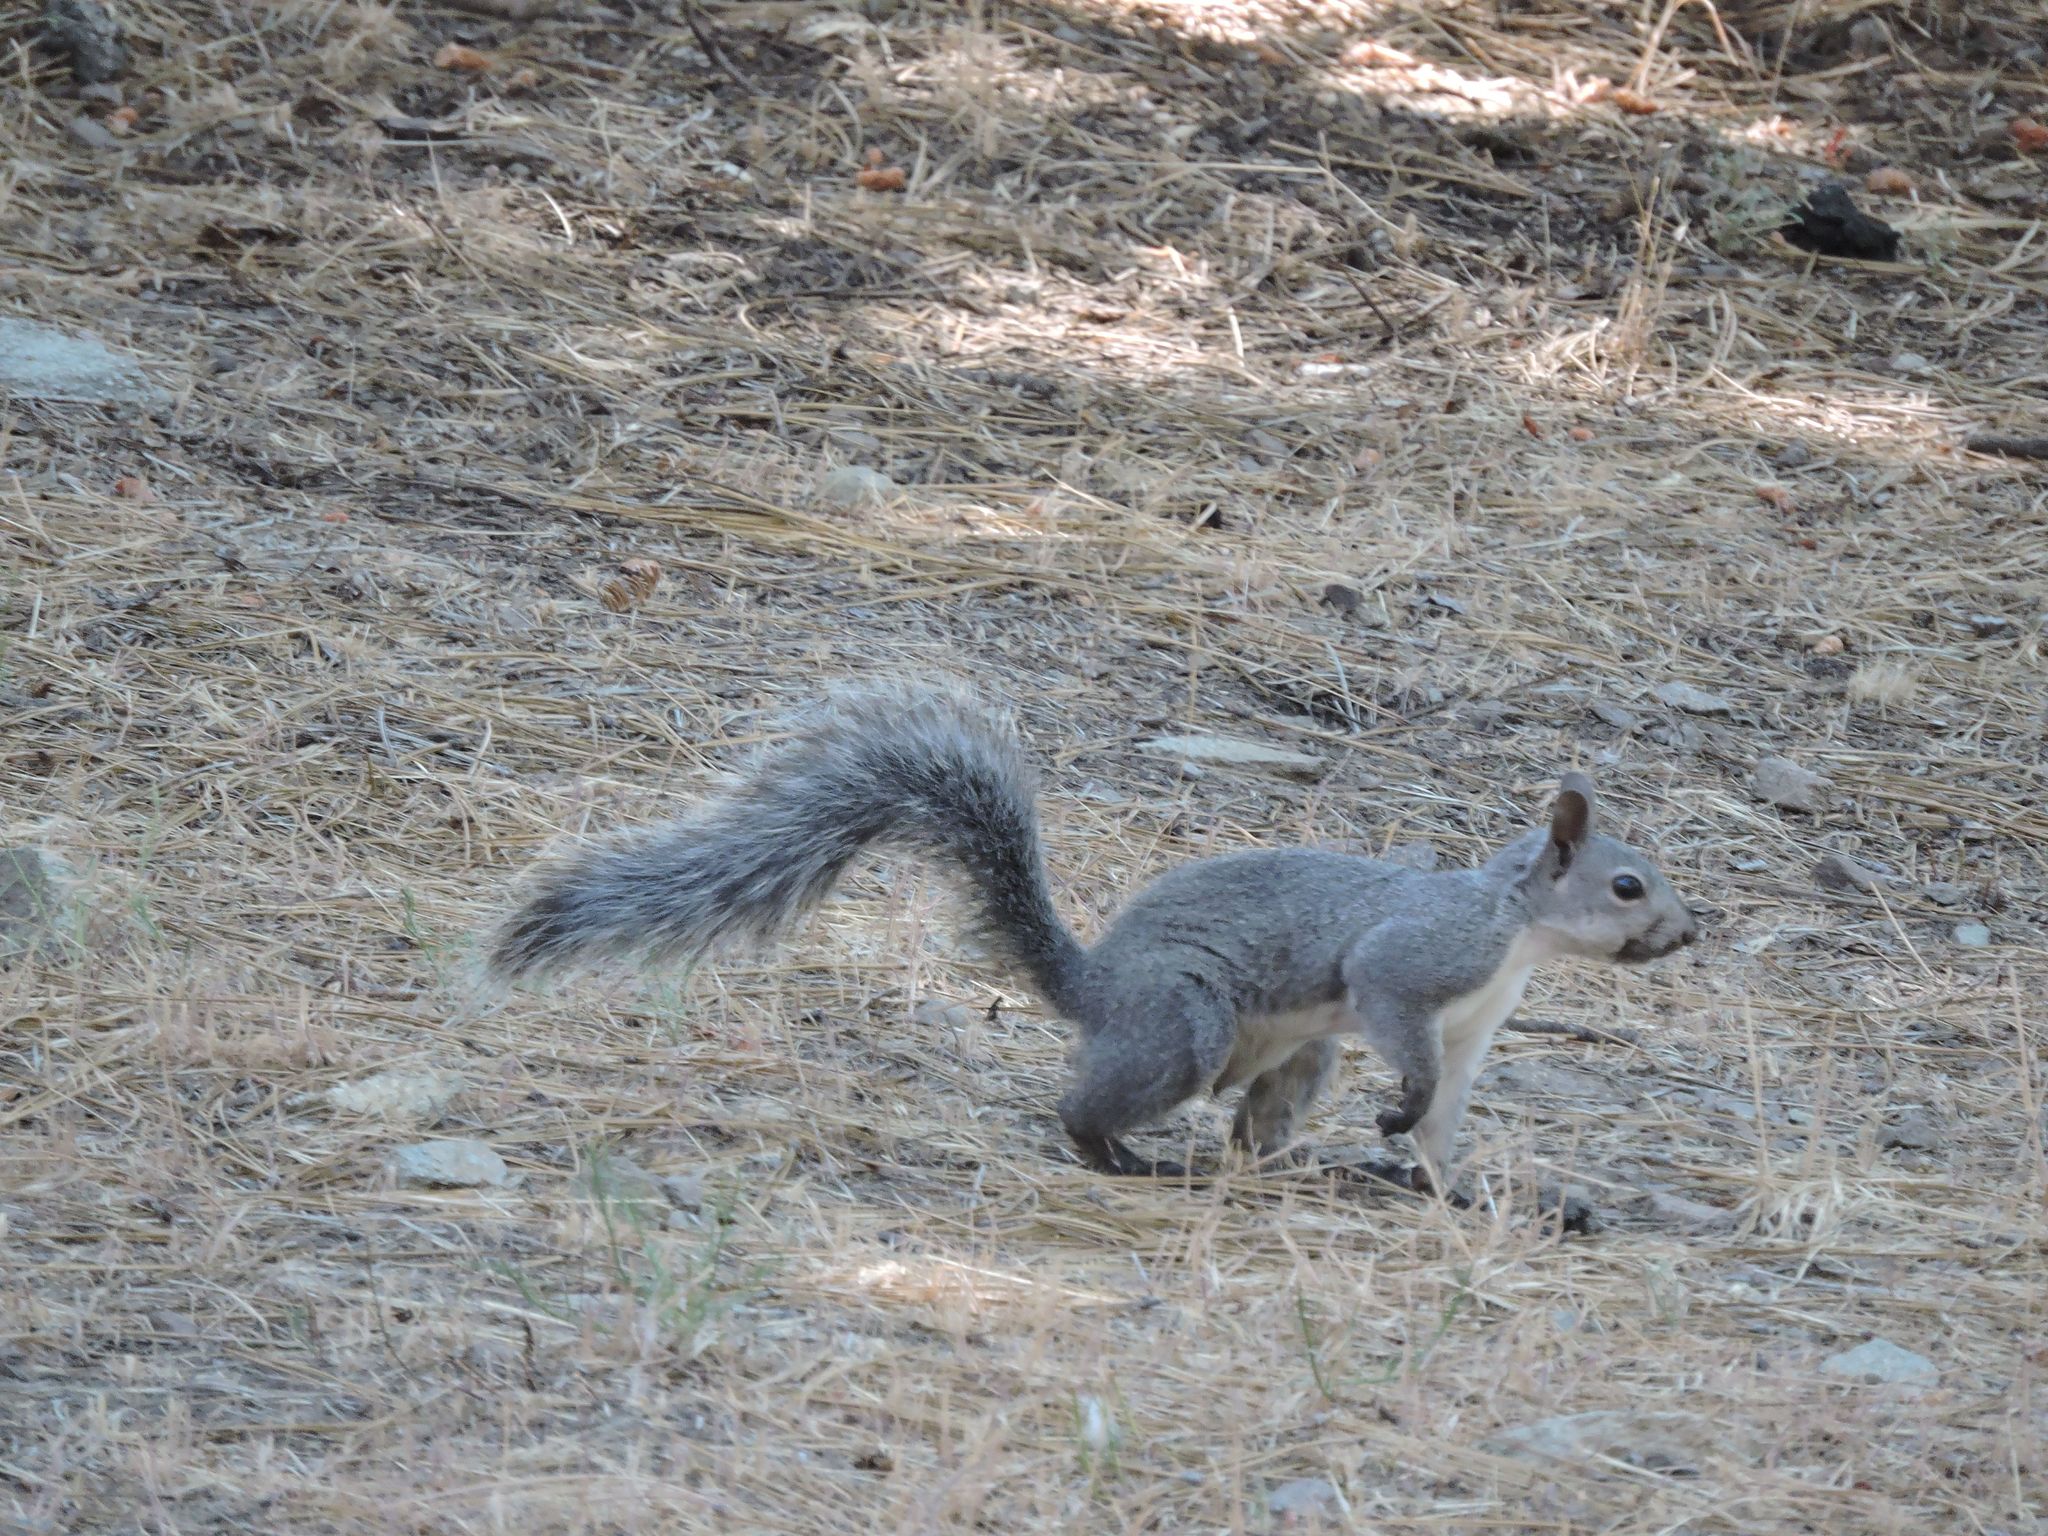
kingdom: Animalia
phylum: Chordata
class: Mammalia
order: Rodentia
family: Sciuridae
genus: Sciurus
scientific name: Sciurus griseus
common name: Western gray squirrel
